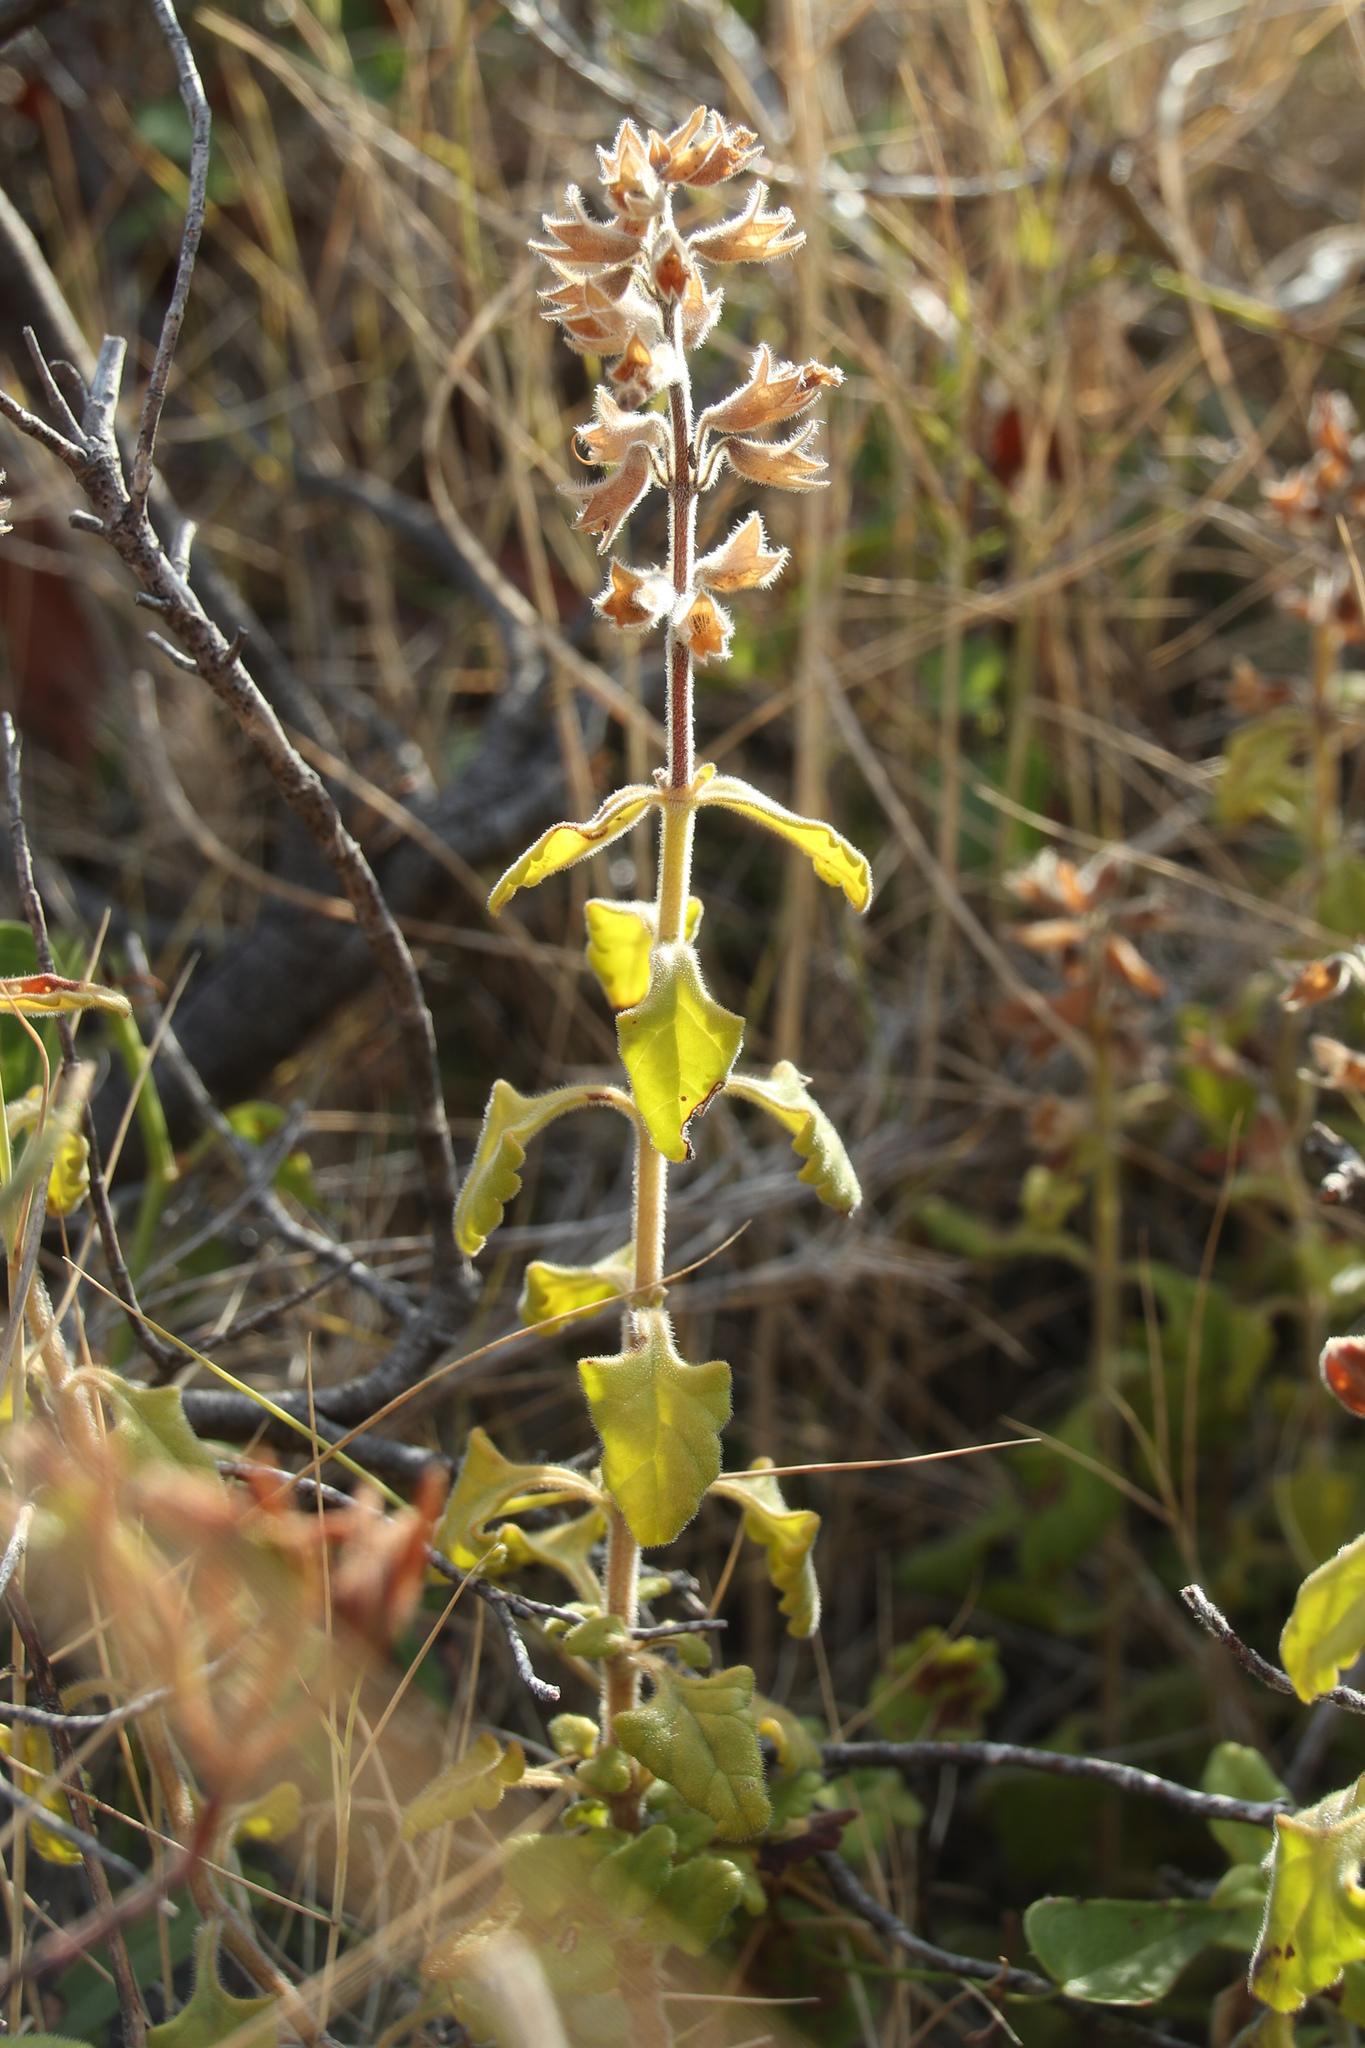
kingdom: Plantae
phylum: Tracheophyta
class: Magnoliopsida
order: Lamiales
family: Lamiaceae
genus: Teucrium
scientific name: Teucrium flavum
